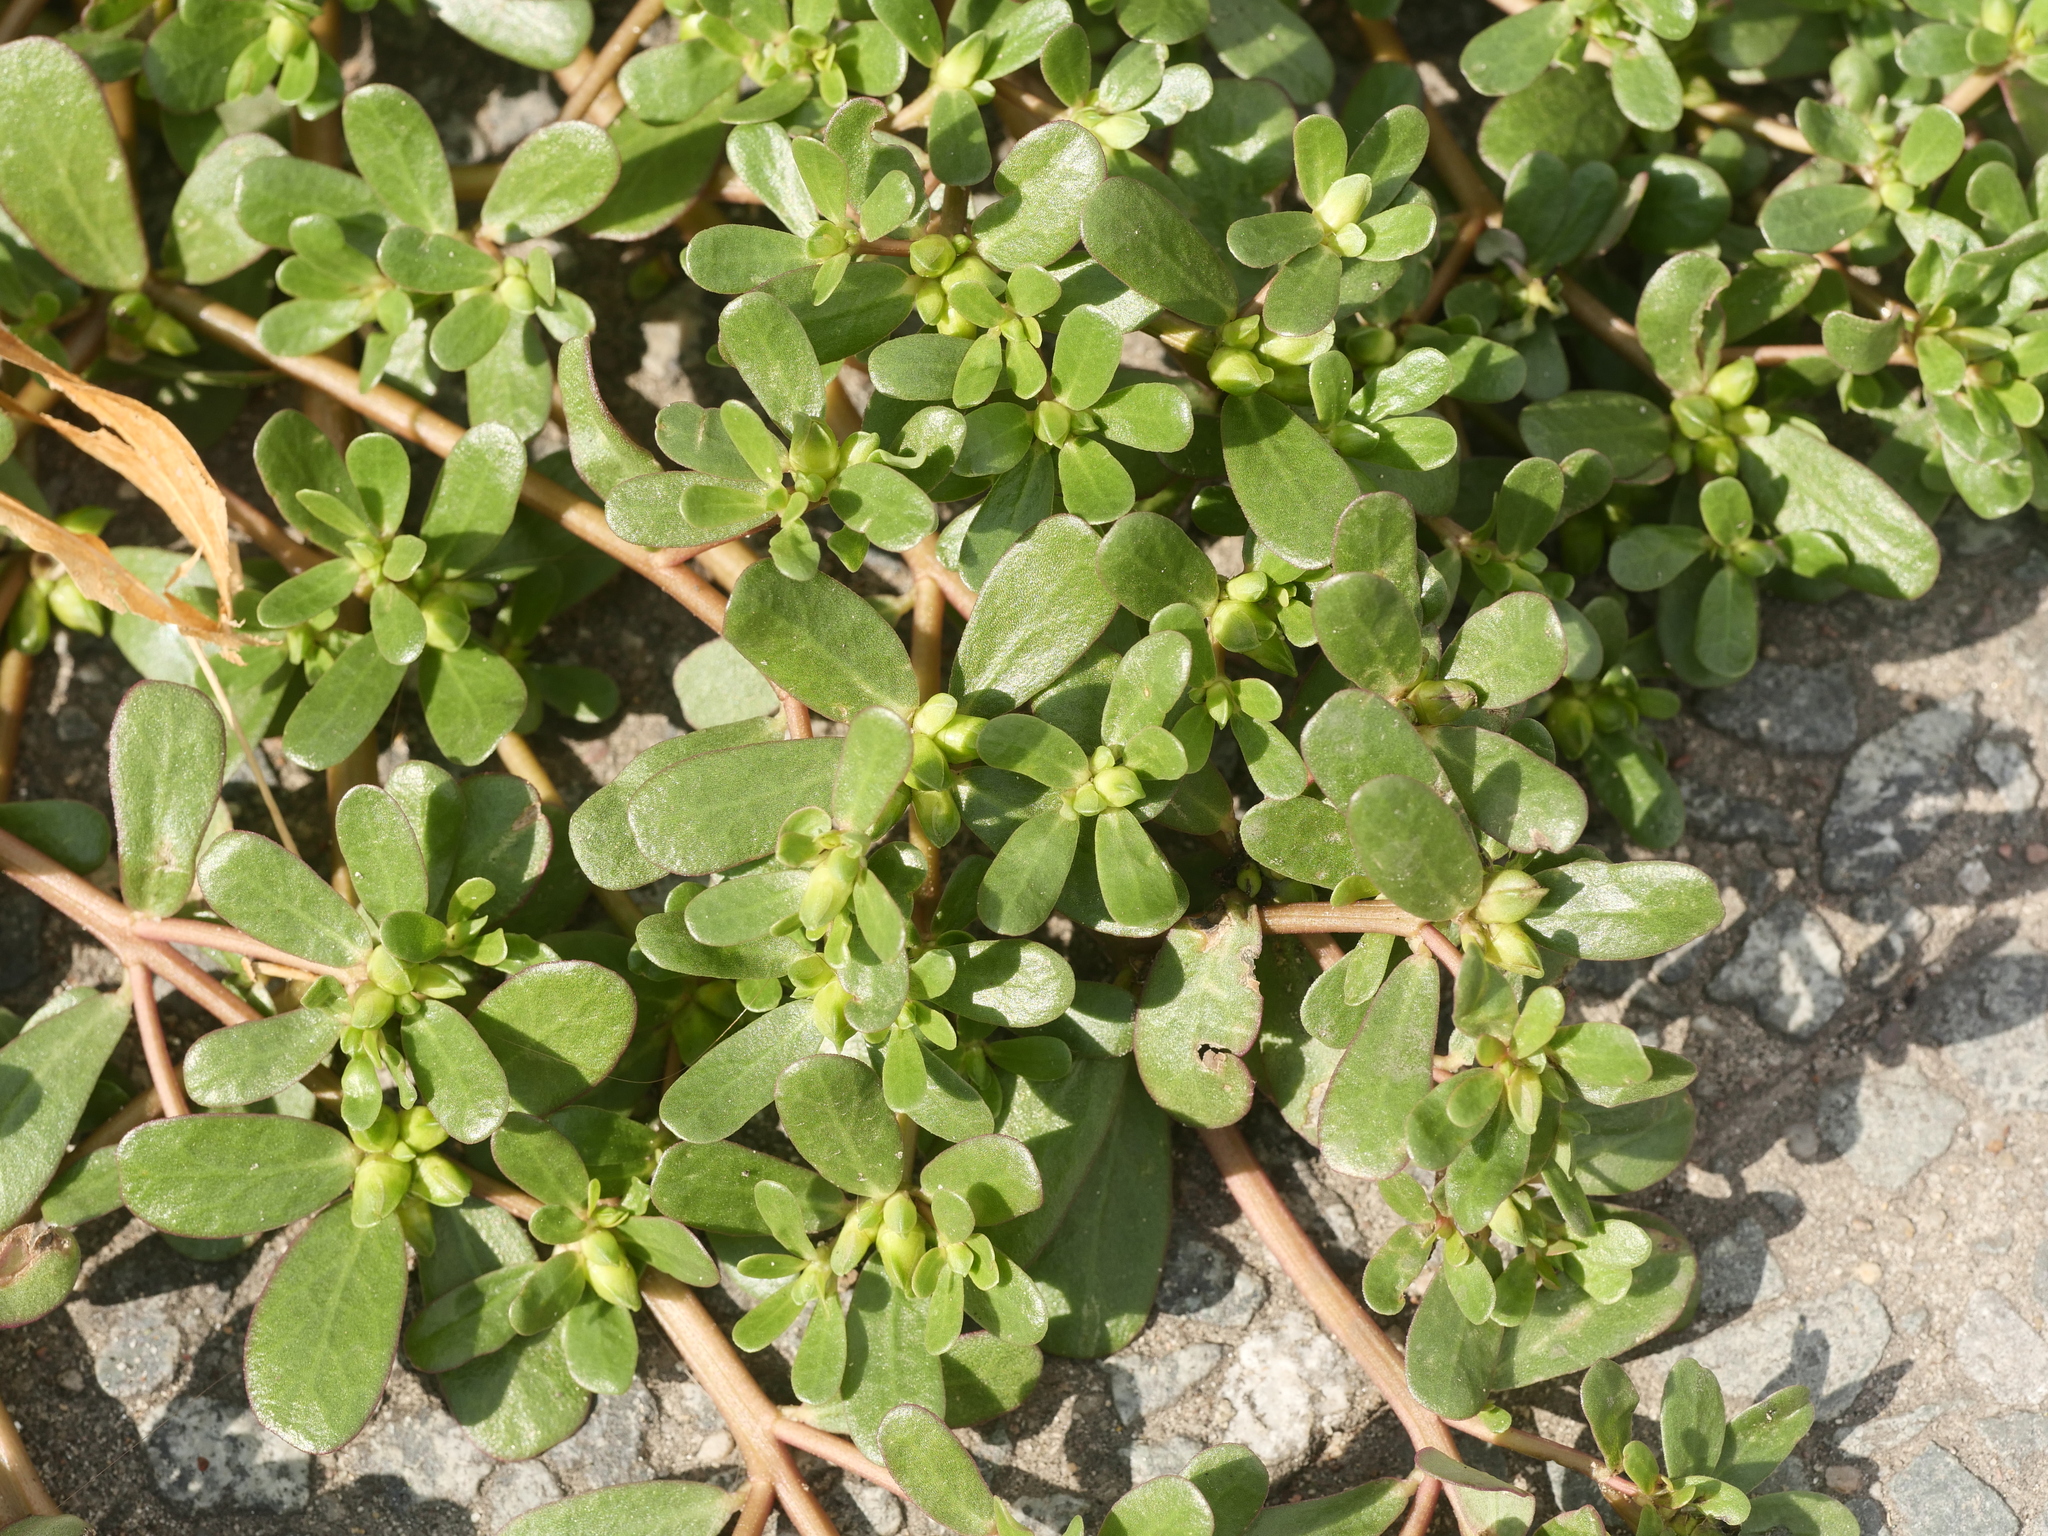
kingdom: Plantae
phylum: Tracheophyta
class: Magnoliopsida
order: Caryophyllales
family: Portulacaceae
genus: Portulaca
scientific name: Portulaca oleracea
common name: Common purslane
